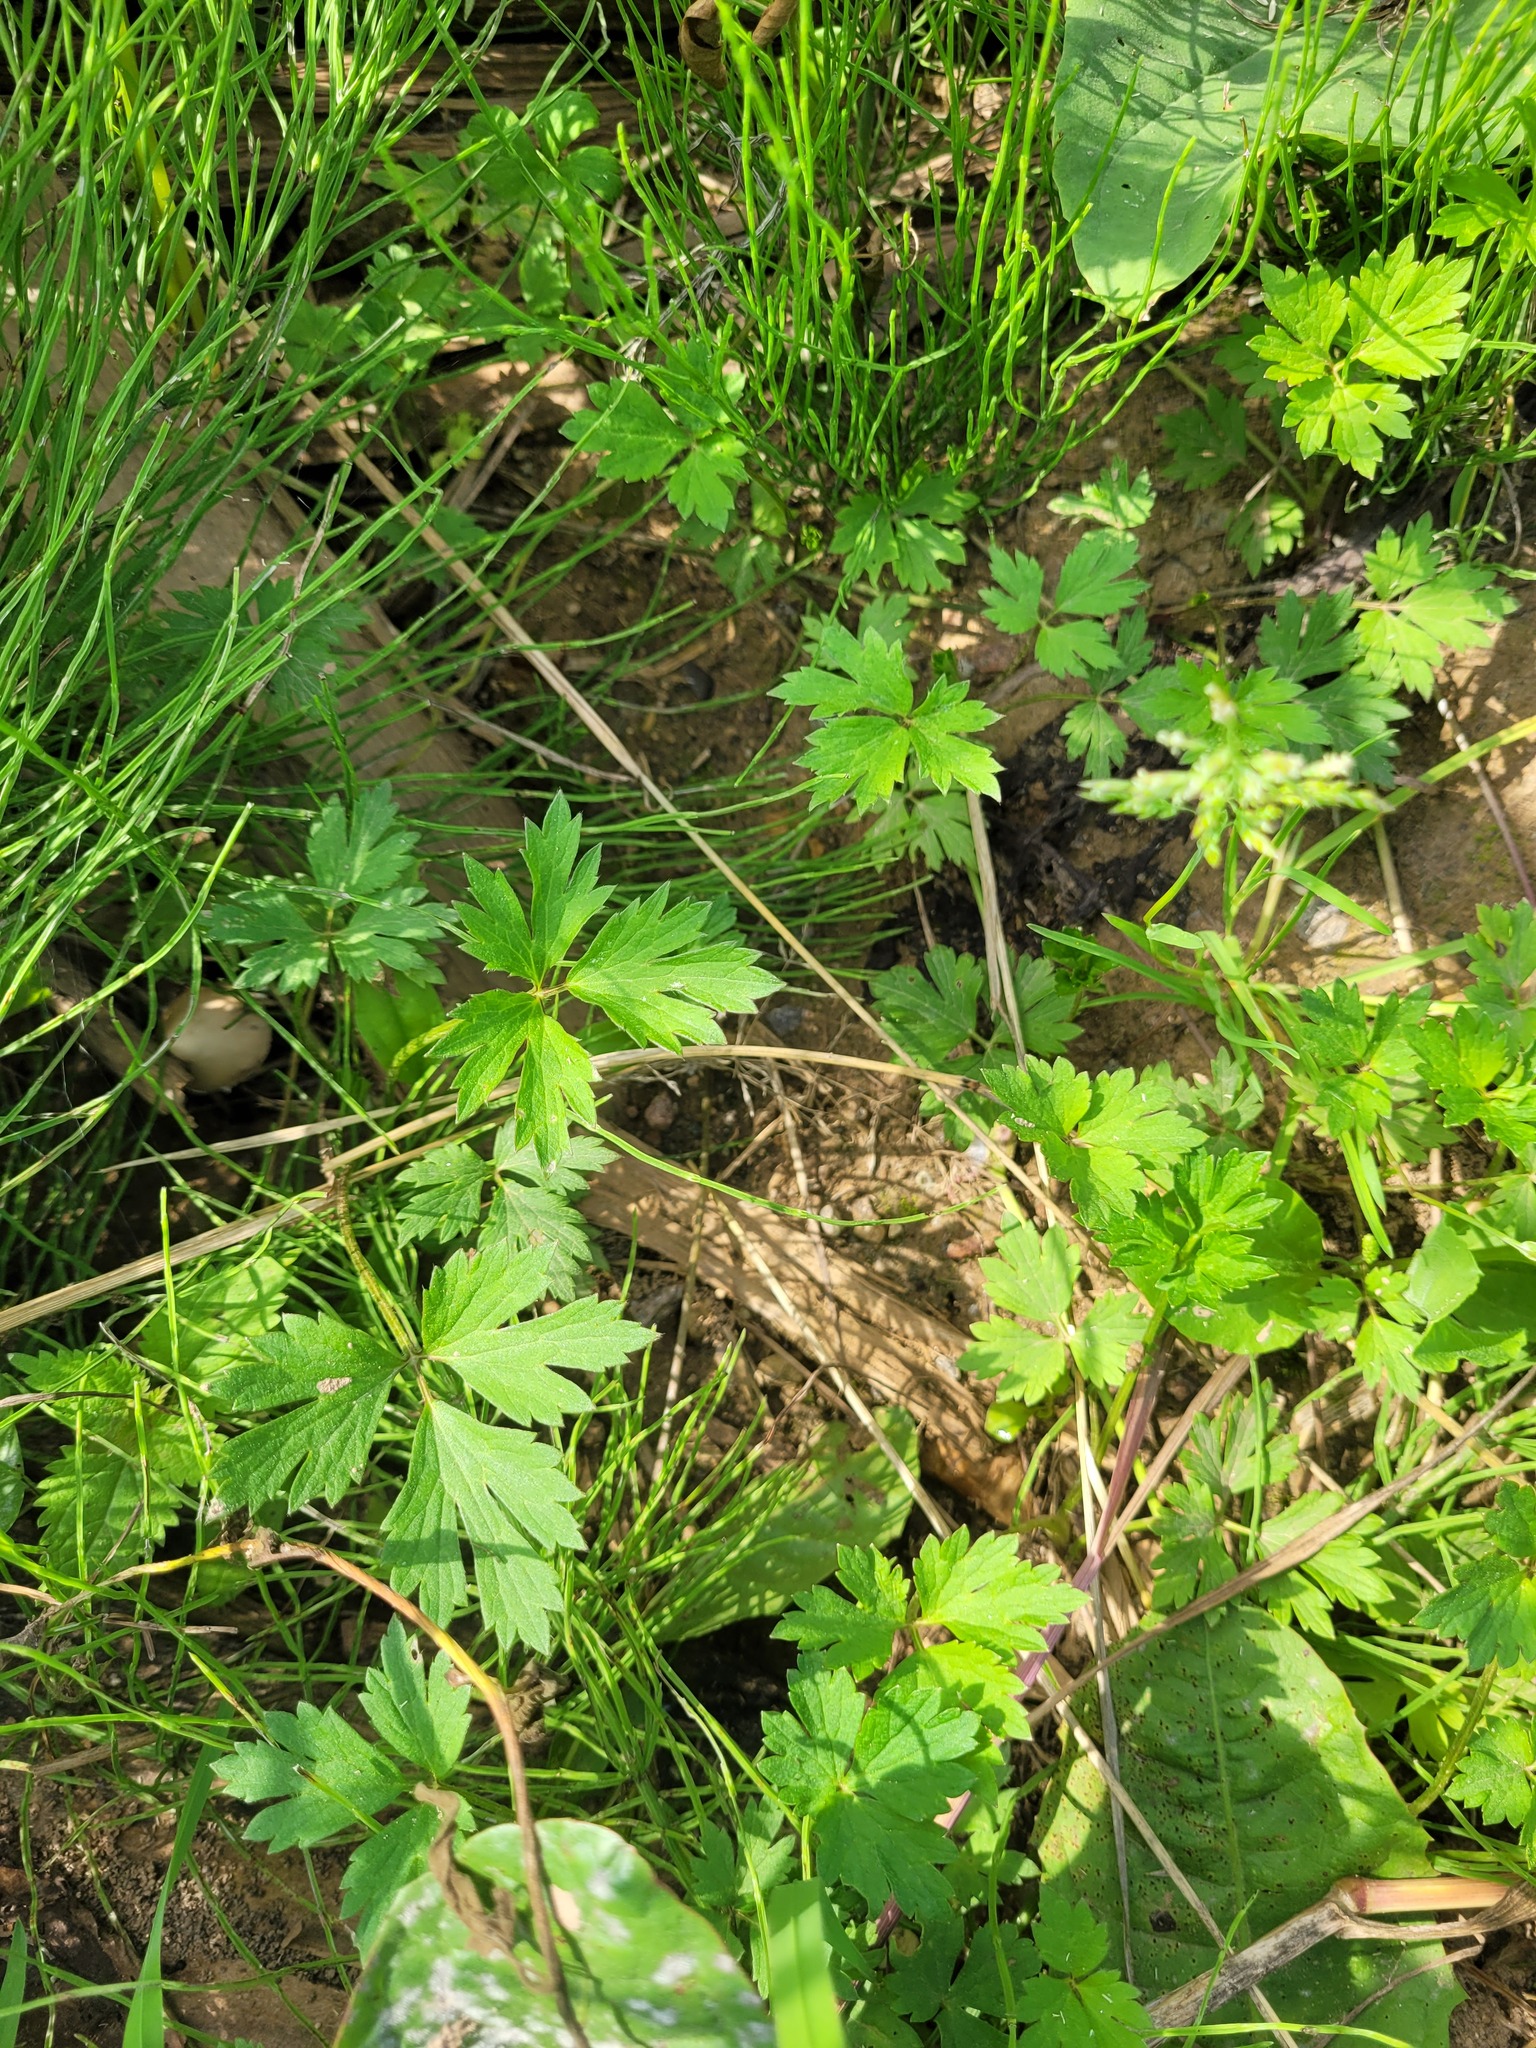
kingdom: Plantae
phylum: Tracheophyta
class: Magnoliopsida
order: Ranunculales
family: Ranunculaceae
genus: Ranunculus
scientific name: Ranunculus repens
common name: Creeping buttercup
